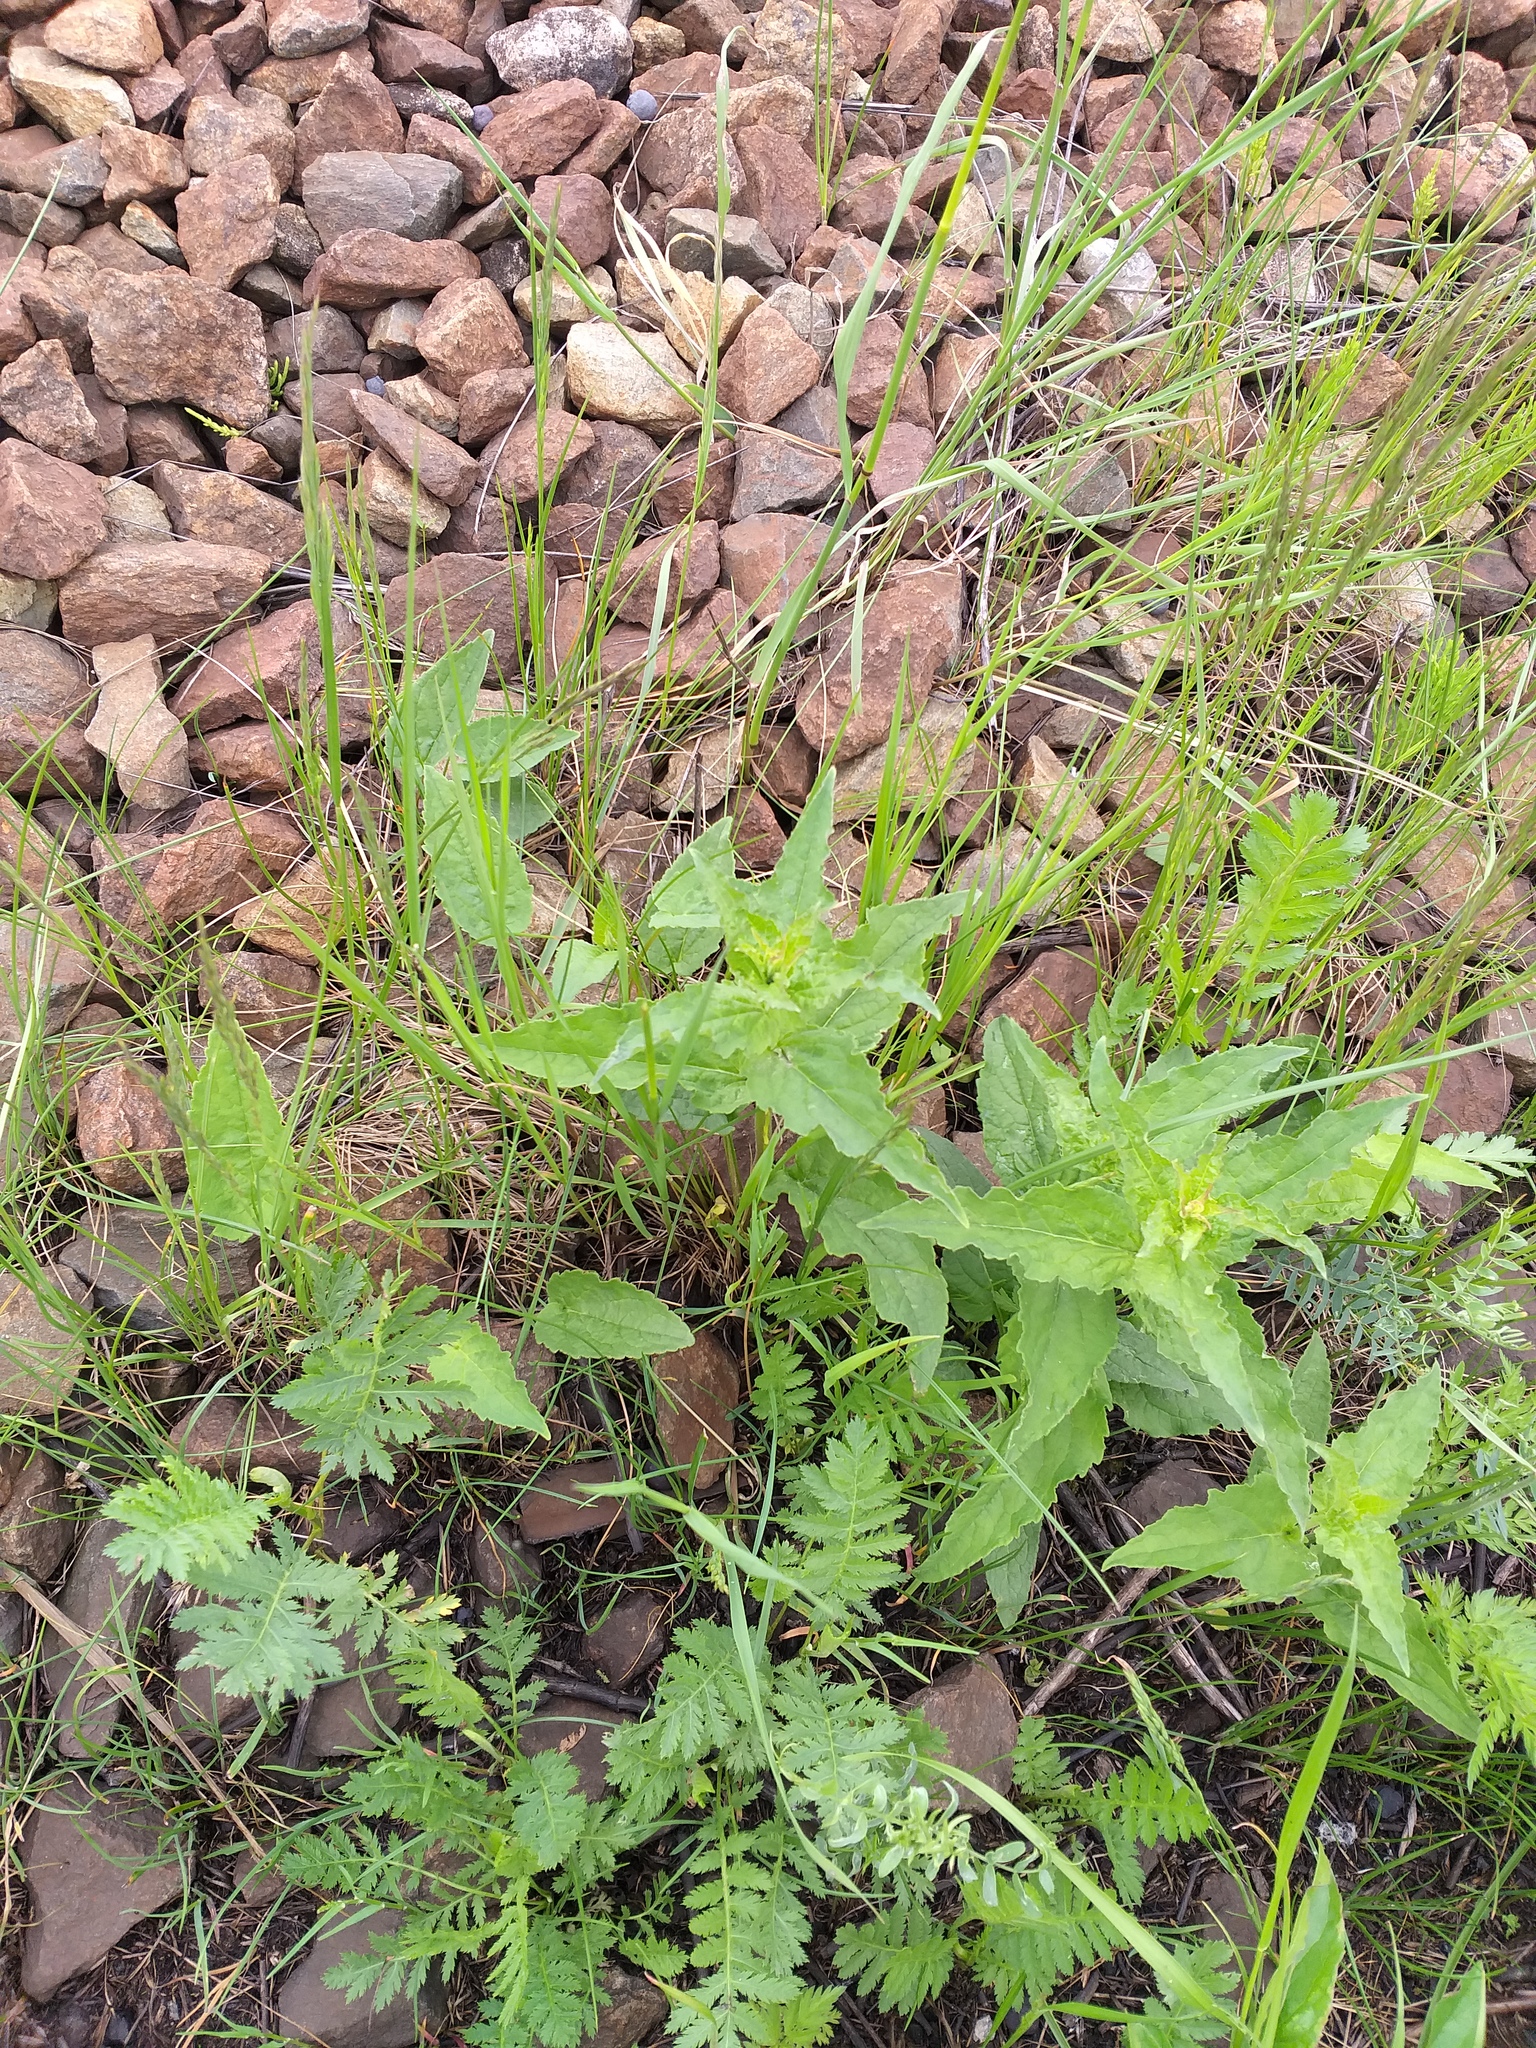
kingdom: Plantae
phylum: Tracheophyta
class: Magnoliopsida
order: Asterales
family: Campanulaceae
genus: Campanula
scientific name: Campanula rapunculoides
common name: Creeping bellflower
